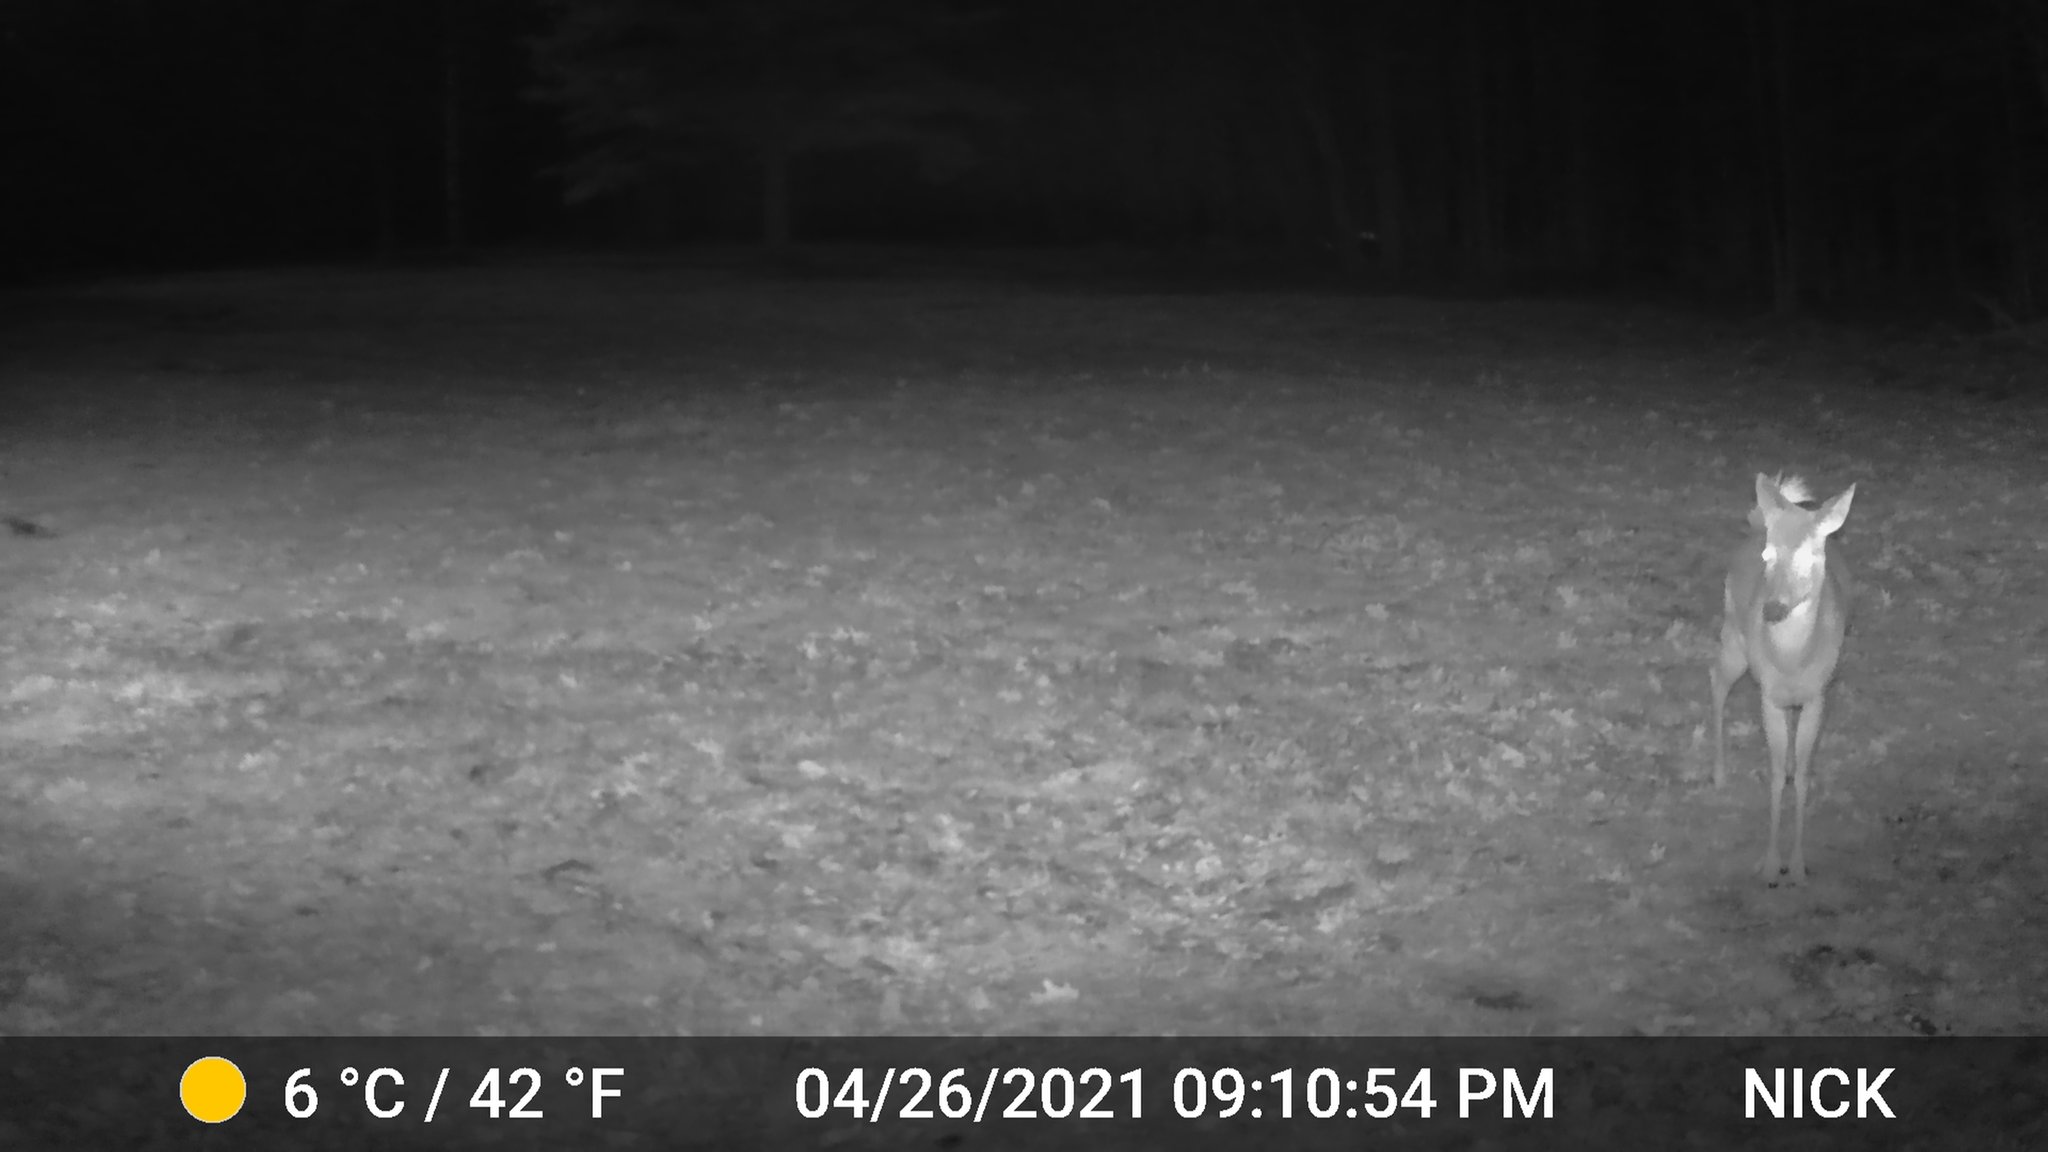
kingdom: Animalia
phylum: Chordata
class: Mammalia
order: Artiodactyla
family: Cervidae
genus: Odocoileus
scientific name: Odocoileus virginianus
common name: White-tailed deer
